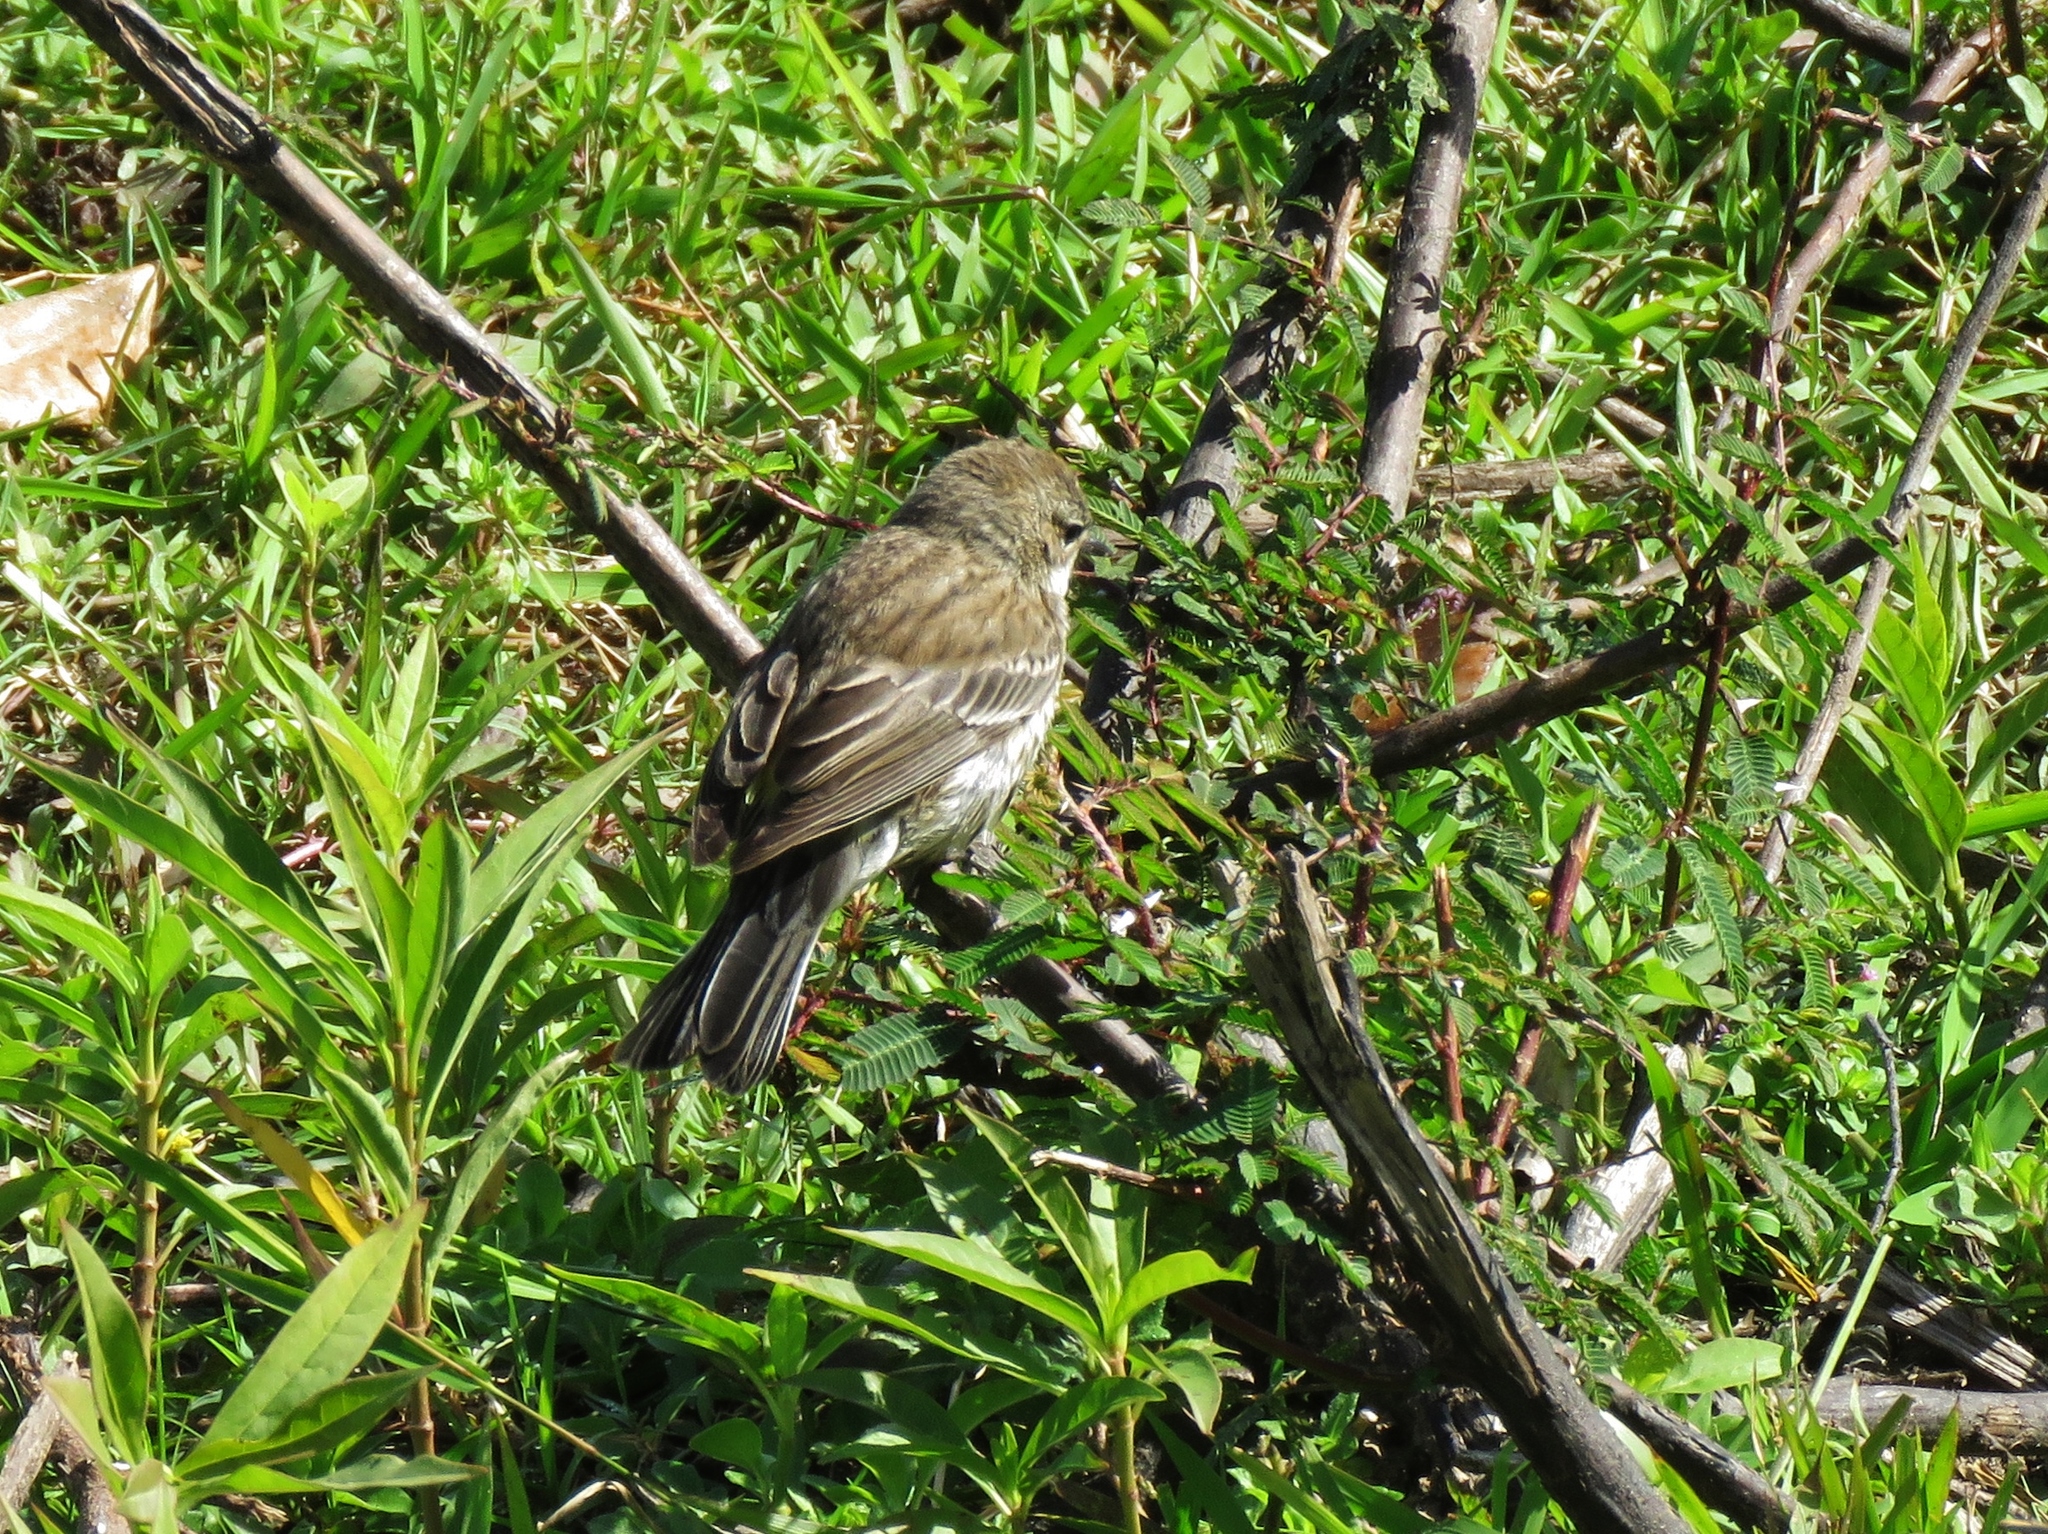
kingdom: Animalia
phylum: Chordata
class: Aves
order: Passeriformes
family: Parulidae
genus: Setophaga
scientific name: Setophaga coronata
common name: Myrtle warbler
